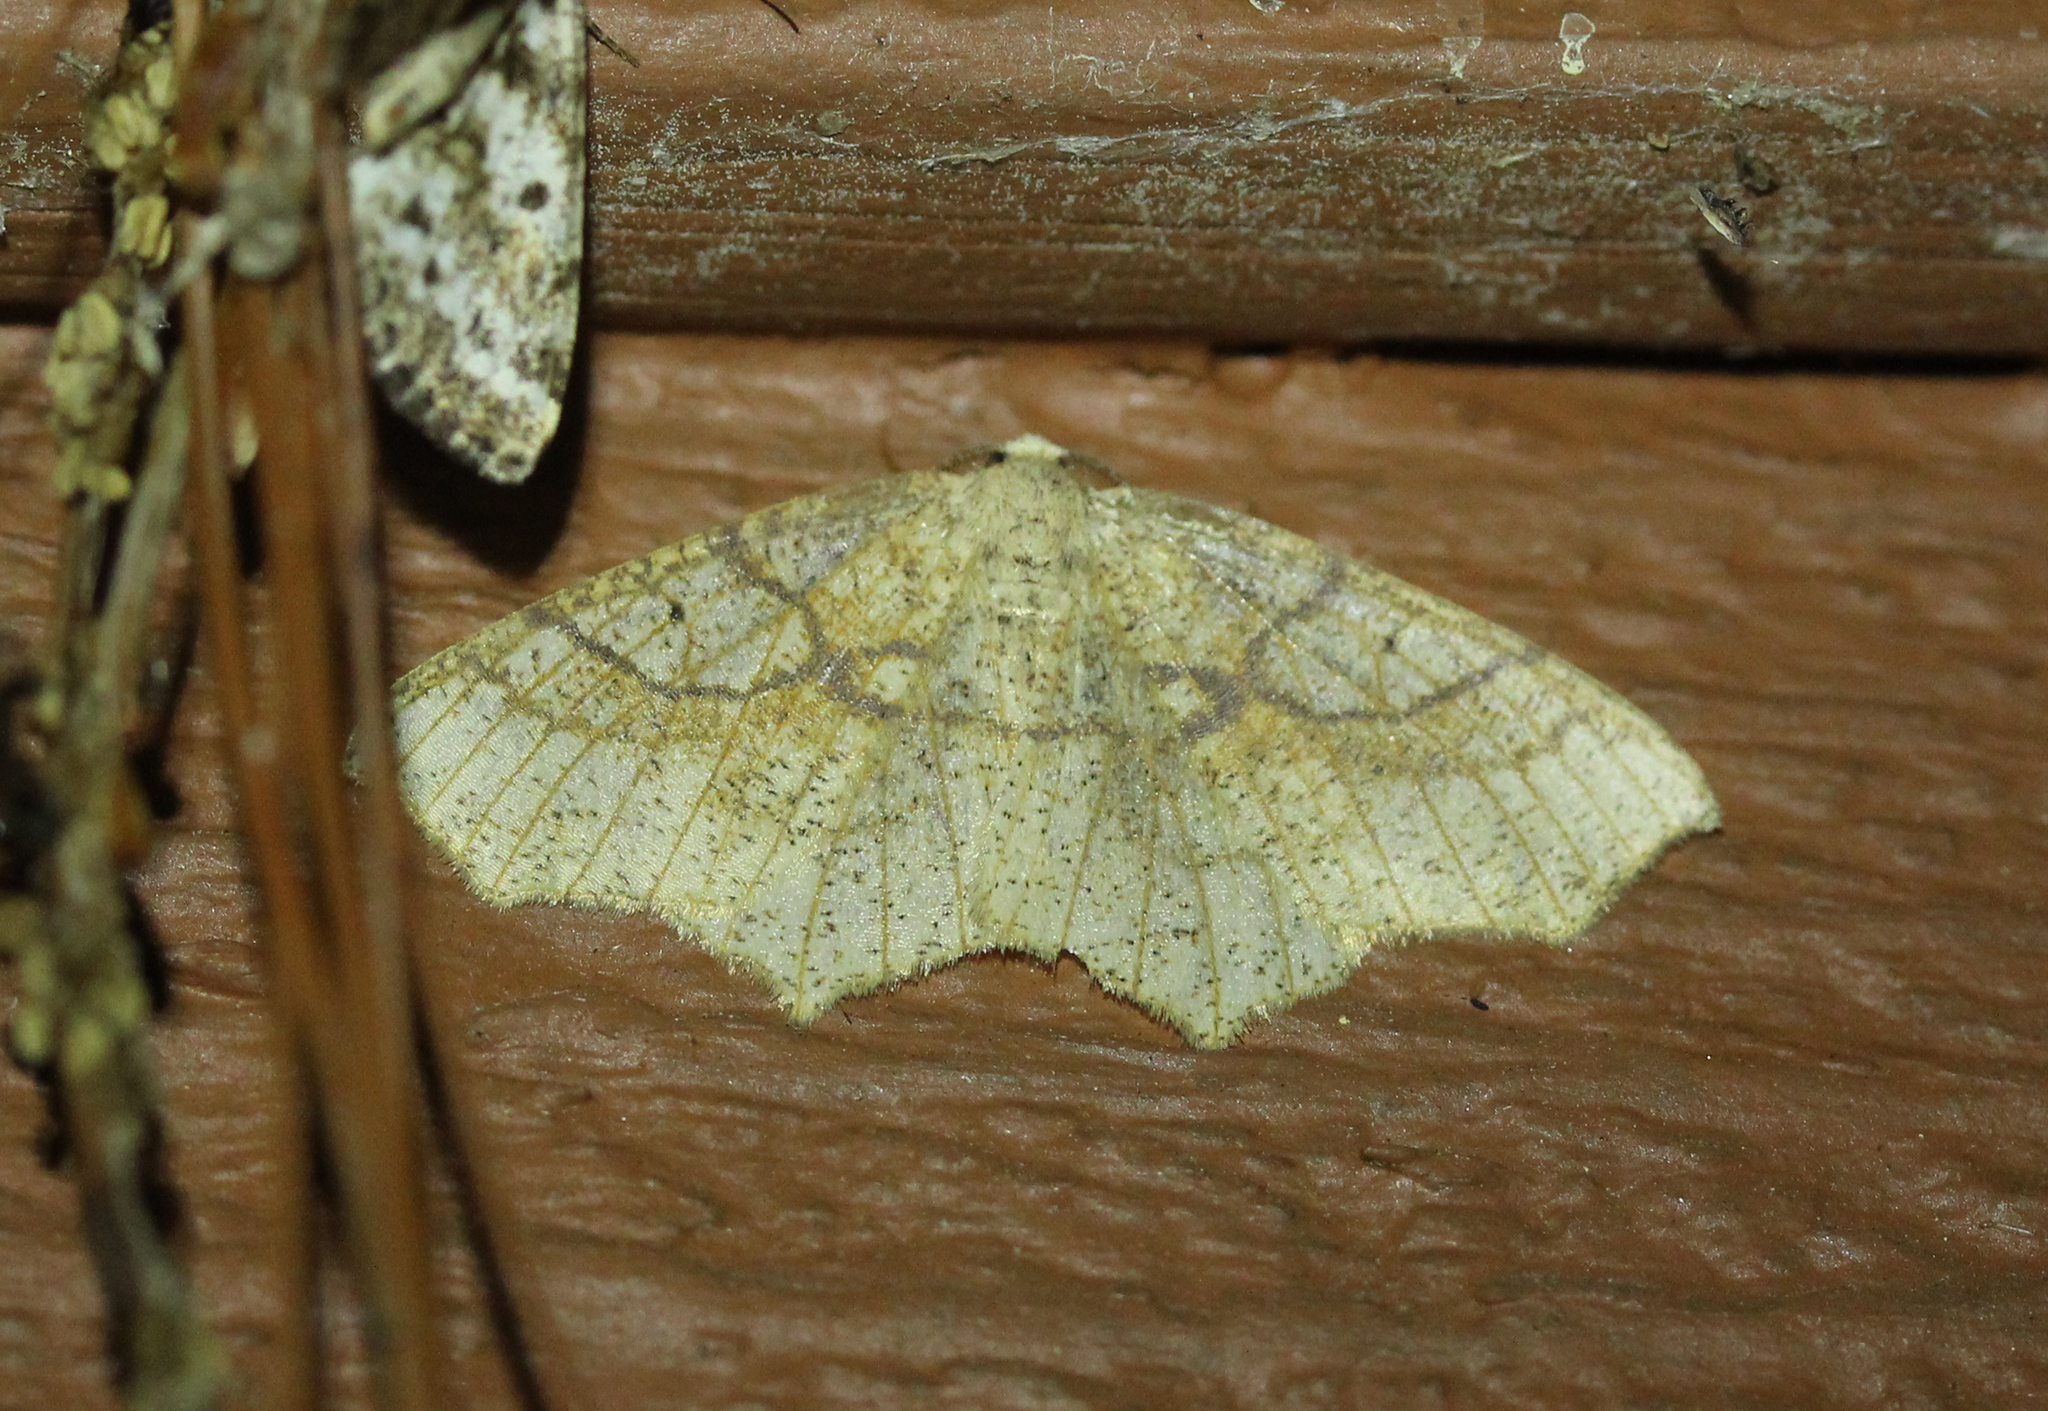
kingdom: Animalia
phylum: Arthropoda
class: Insecta
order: Lepidoptera
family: Geometridae
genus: Besma
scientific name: Besma quercivoraria
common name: Oak besma
